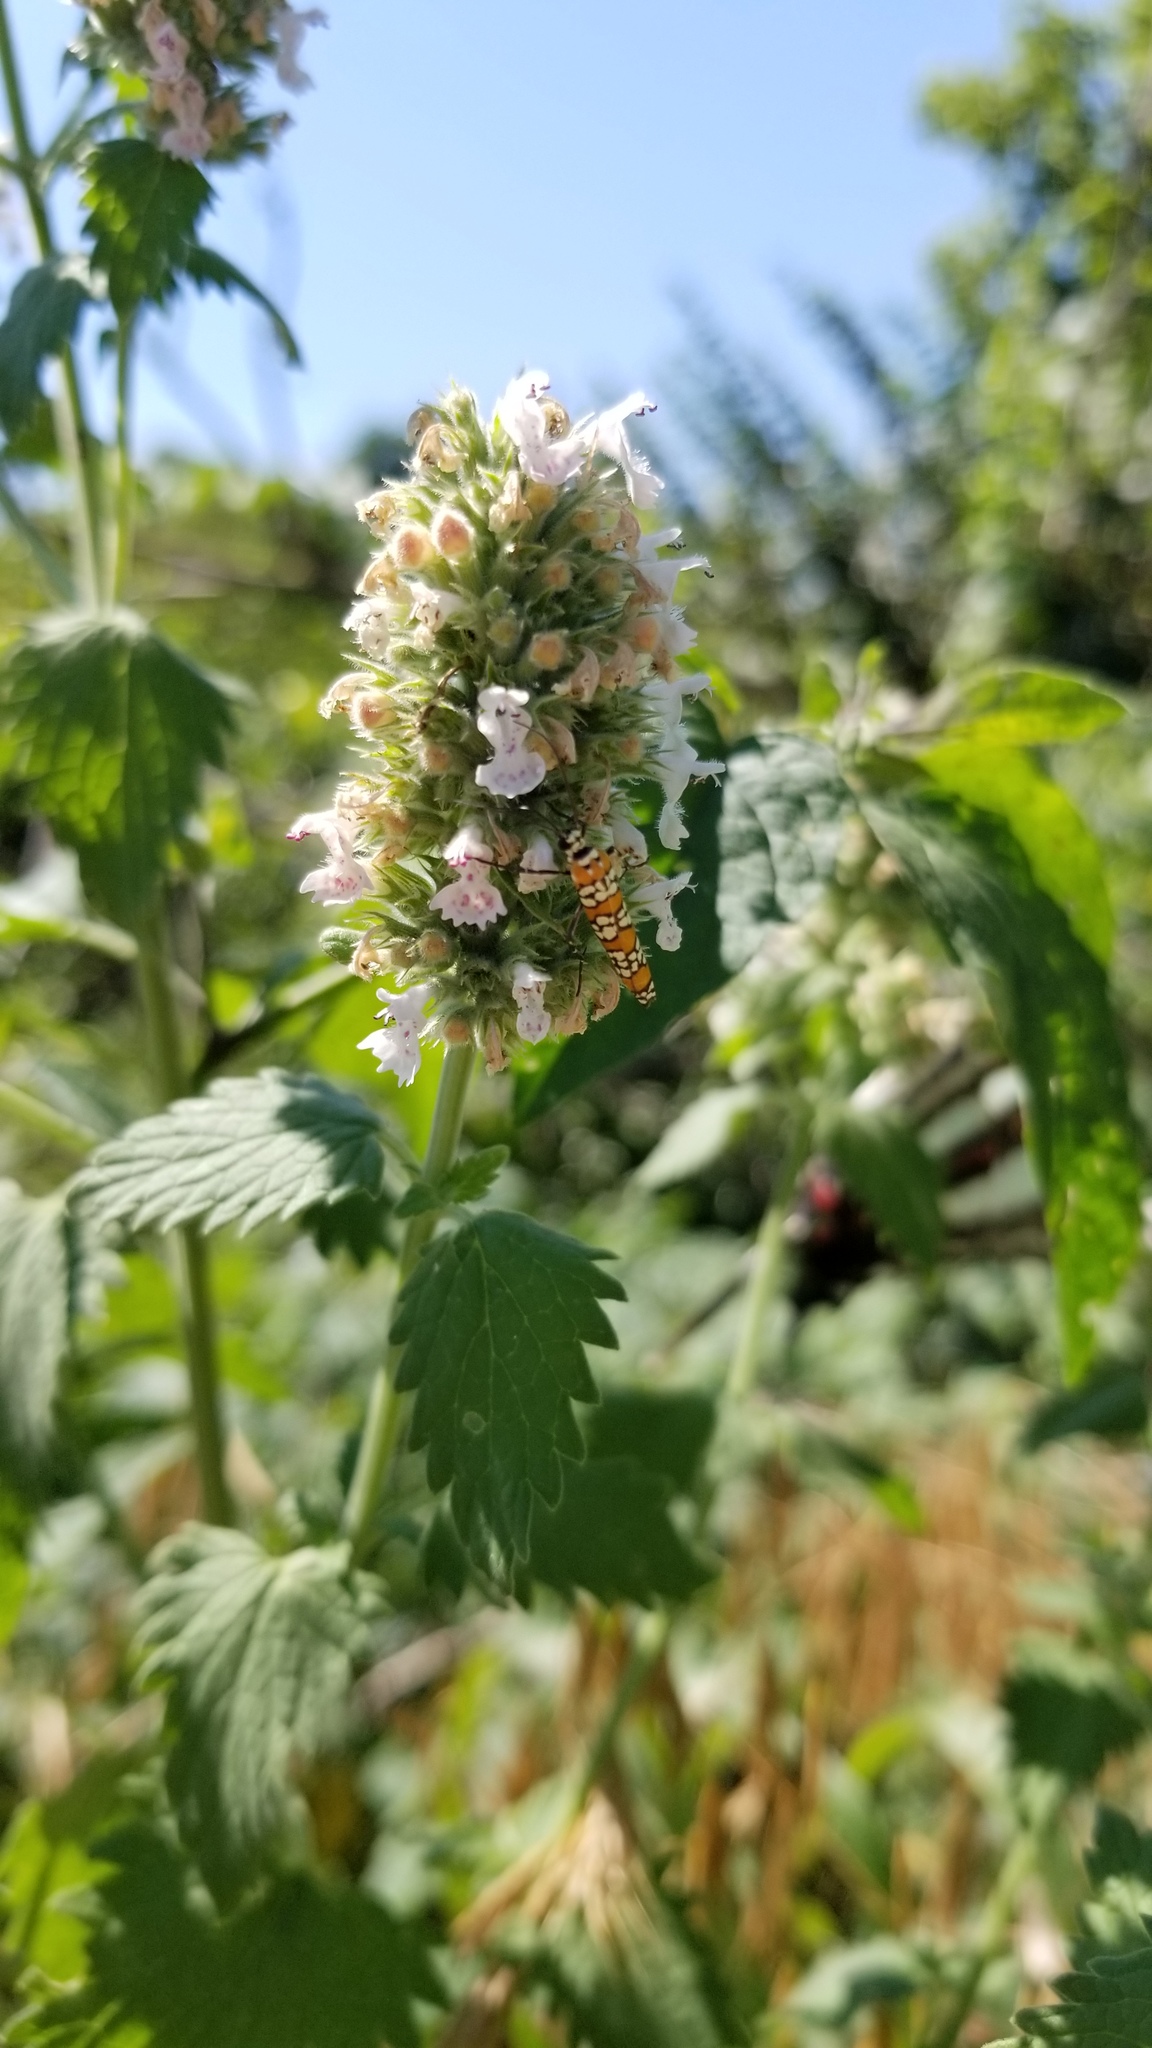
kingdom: Animalia
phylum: Arthropoda
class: Insecta
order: Lepidoptera
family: Attevidae
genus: Atteva
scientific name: Atteva punctella
